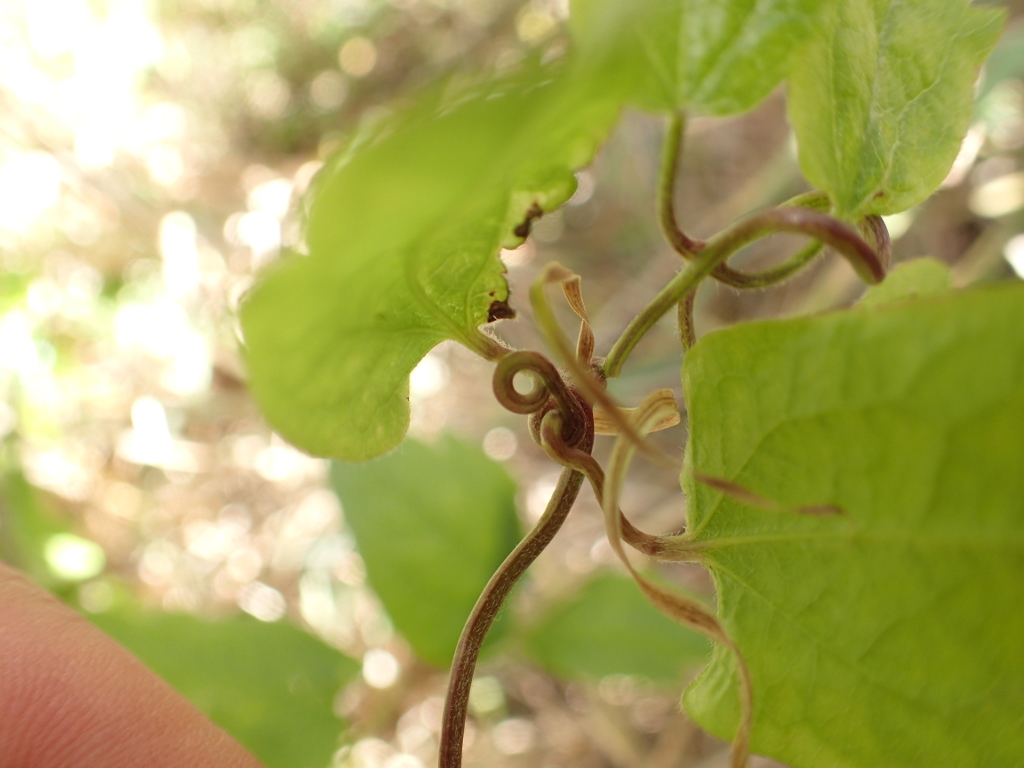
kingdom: Plantae
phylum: Tracheophyta
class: Magnoliopsida
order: Ranunculales
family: Ranunculaceae
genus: Clematis
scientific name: Clematis vitalba
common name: Evergreen clematis
